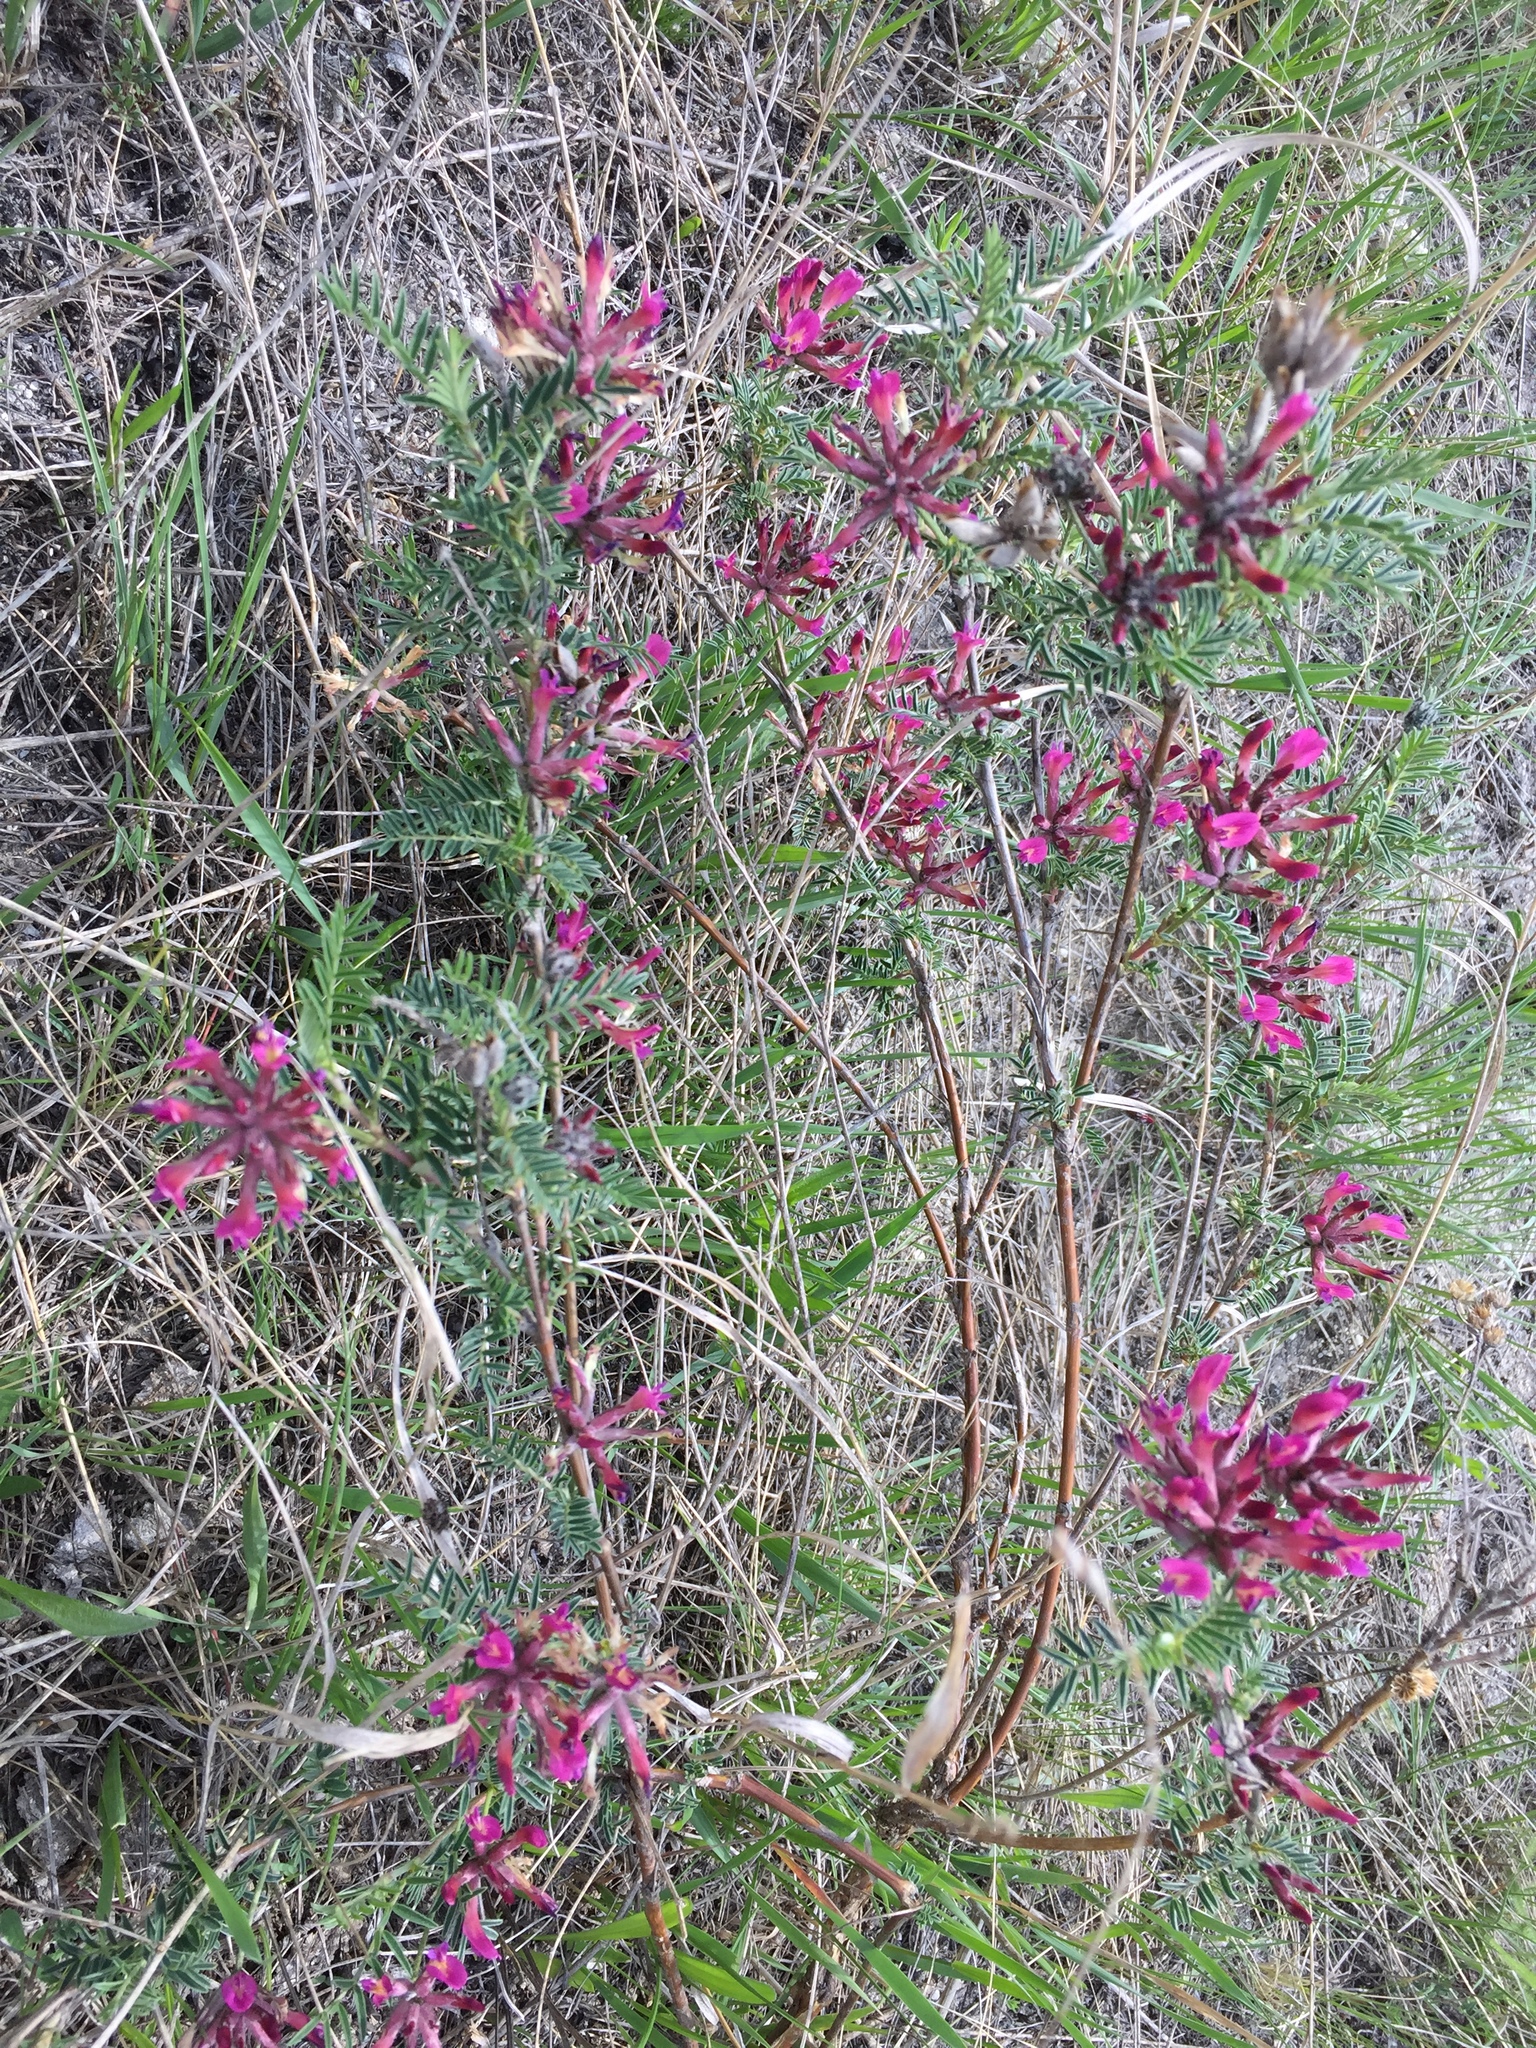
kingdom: Plantae
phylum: Tracheophyta
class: Magnoliopsida
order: Fabales
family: Fabaceae
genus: Astragalus
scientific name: Astragalus cornutus
